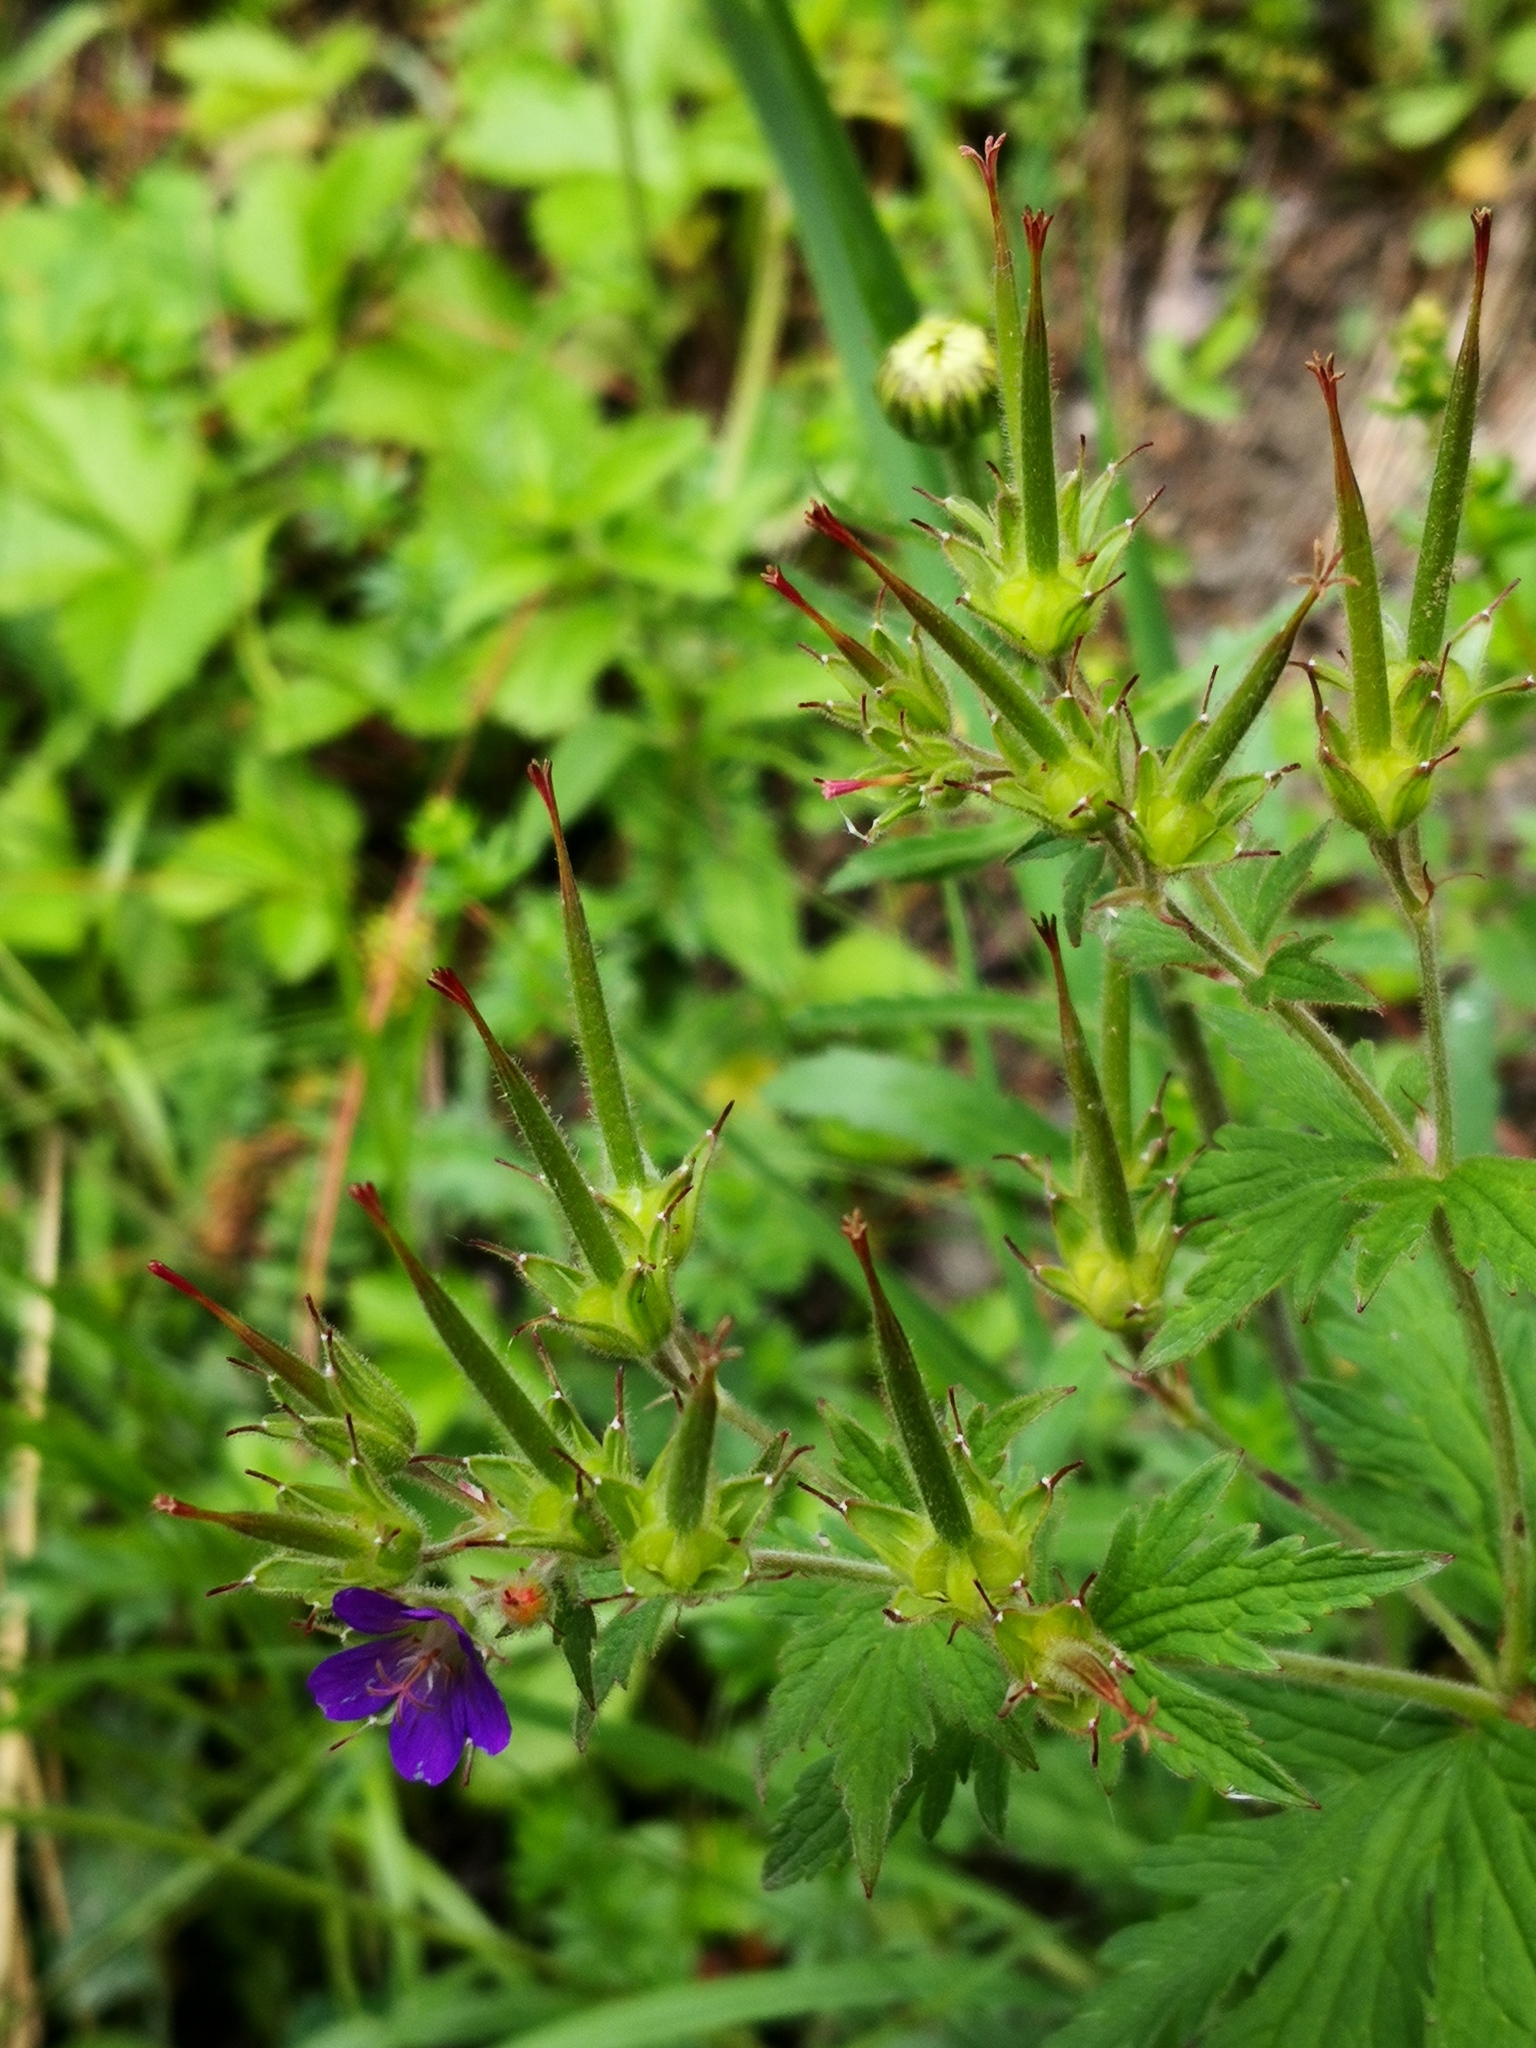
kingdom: Plantae
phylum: Tracheophyta
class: Magnoliopsida
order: Geraniales
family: Geraniaceae
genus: Geranium
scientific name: Geranium sylvaticum
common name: Wood crane's-bill
